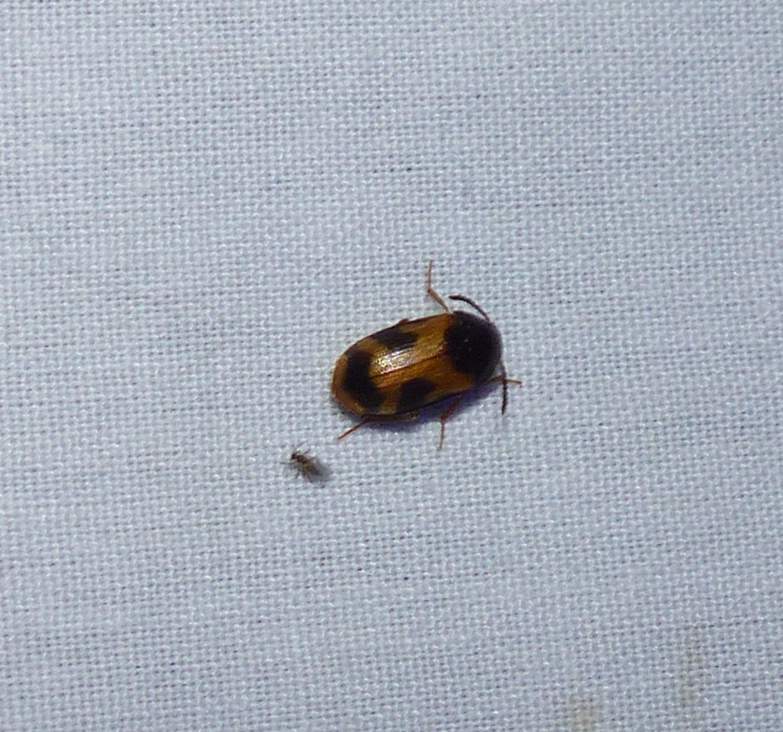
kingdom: Animalia
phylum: Arthropoda
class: Insecta
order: Coleoptera
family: Mycetophagidae
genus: Mycetophagus
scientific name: Mycetophagus punctatus
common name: Hairy fungus beetle
